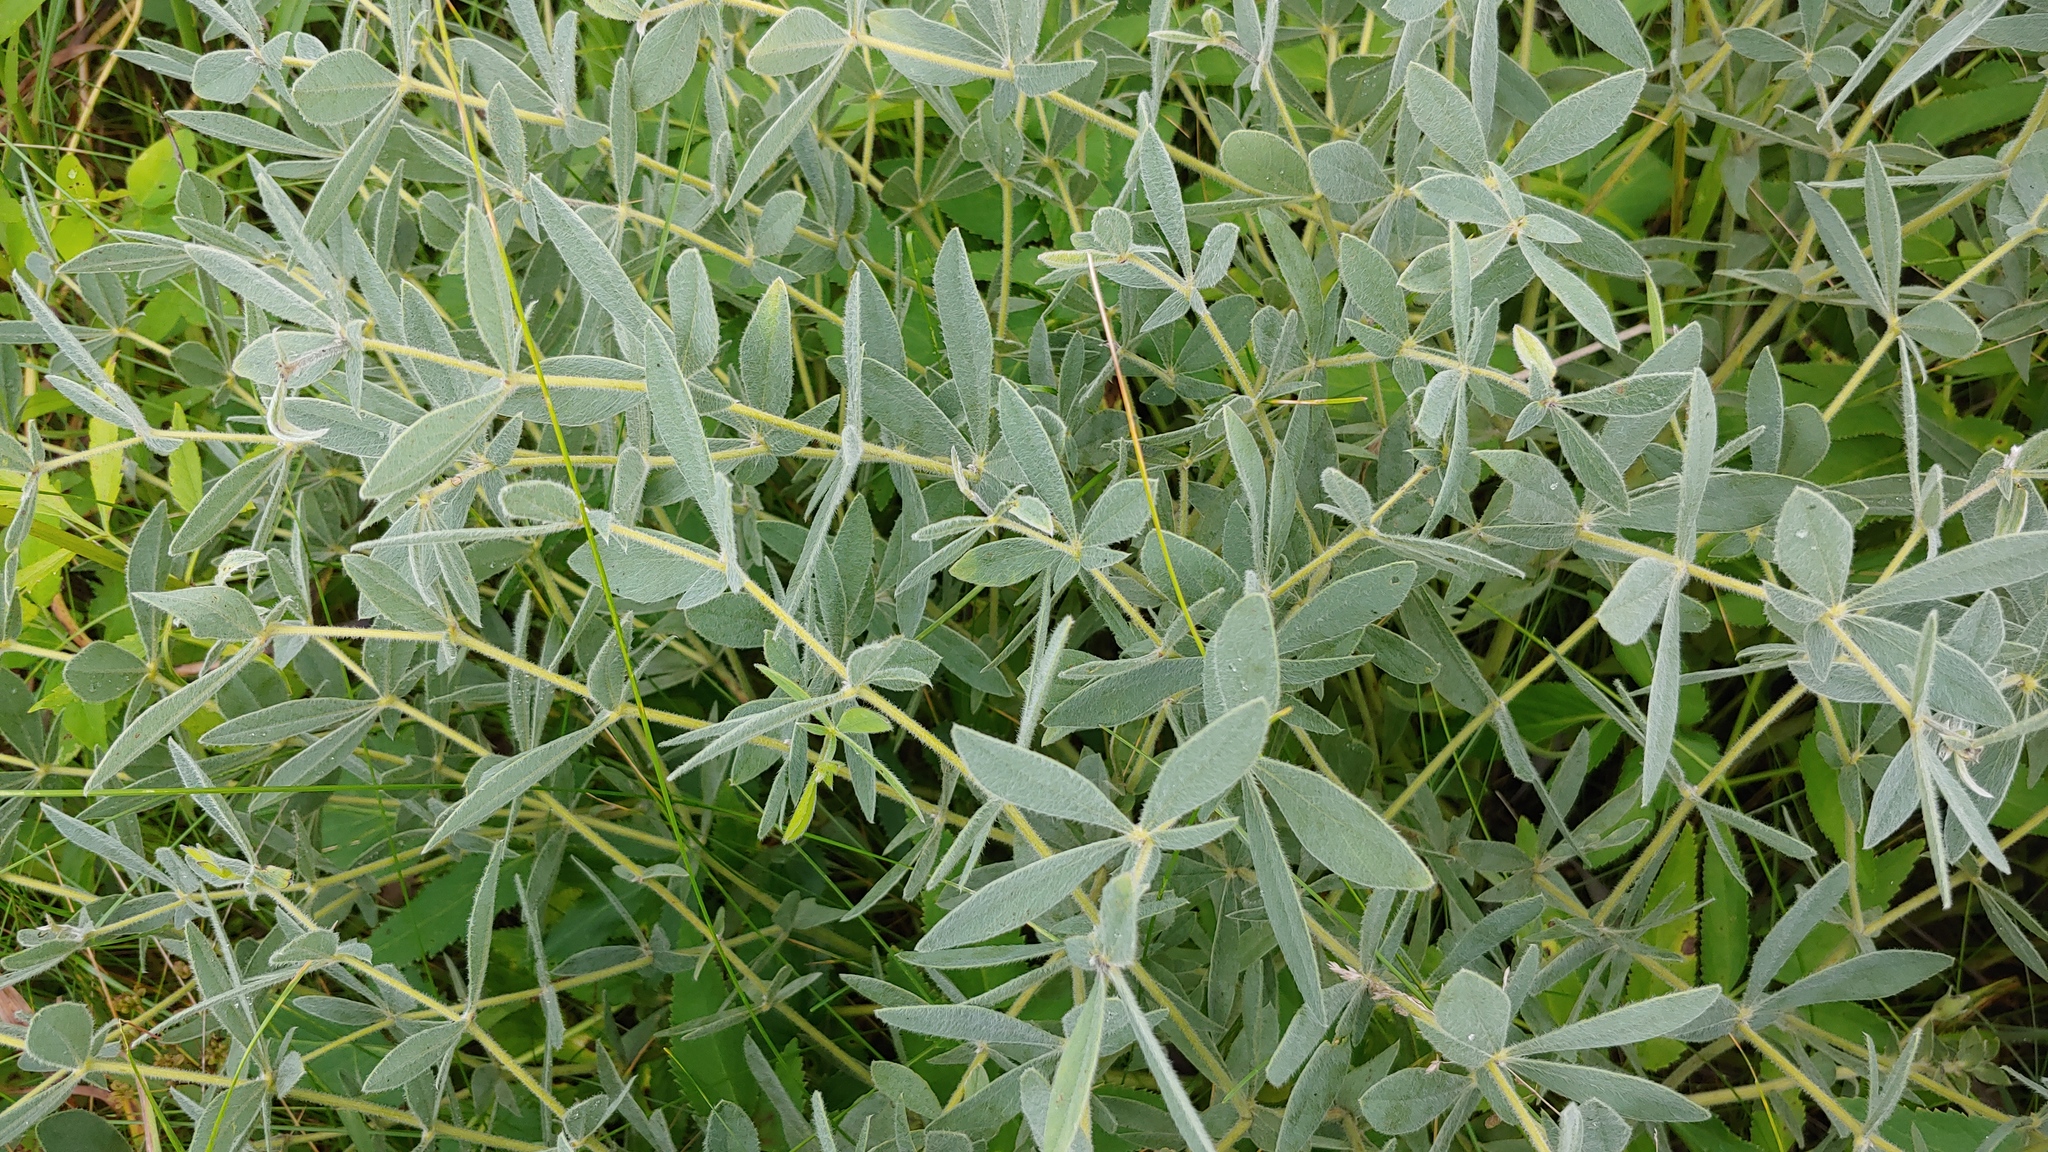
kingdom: Plantae
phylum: Tracheophyta
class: Magnoliopsida
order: Fabales
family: Fabaceae
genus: Baptisia
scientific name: Baptisia bracteata
